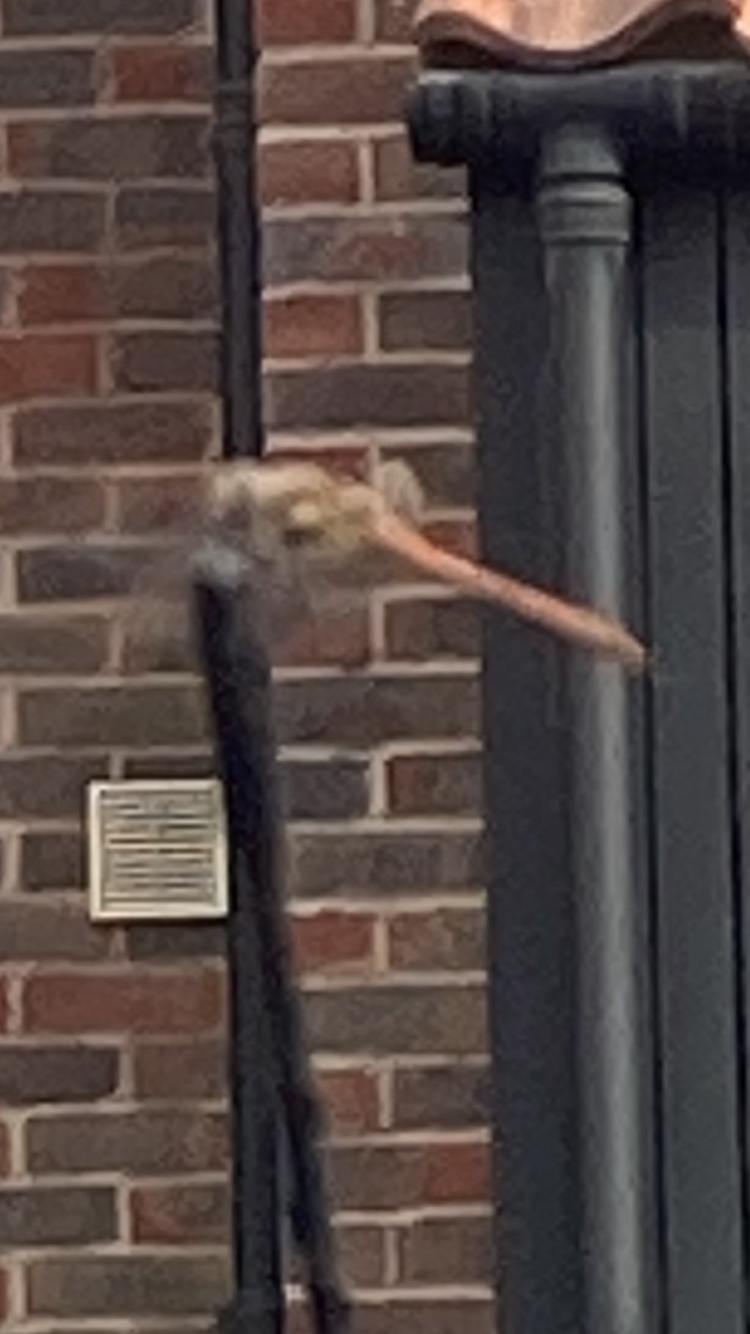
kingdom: Animalia
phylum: Arthropoda
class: Insecta
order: Odonata
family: Libellulidae
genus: Sympetrum
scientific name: Sympetrum striolatum
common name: Common darter
